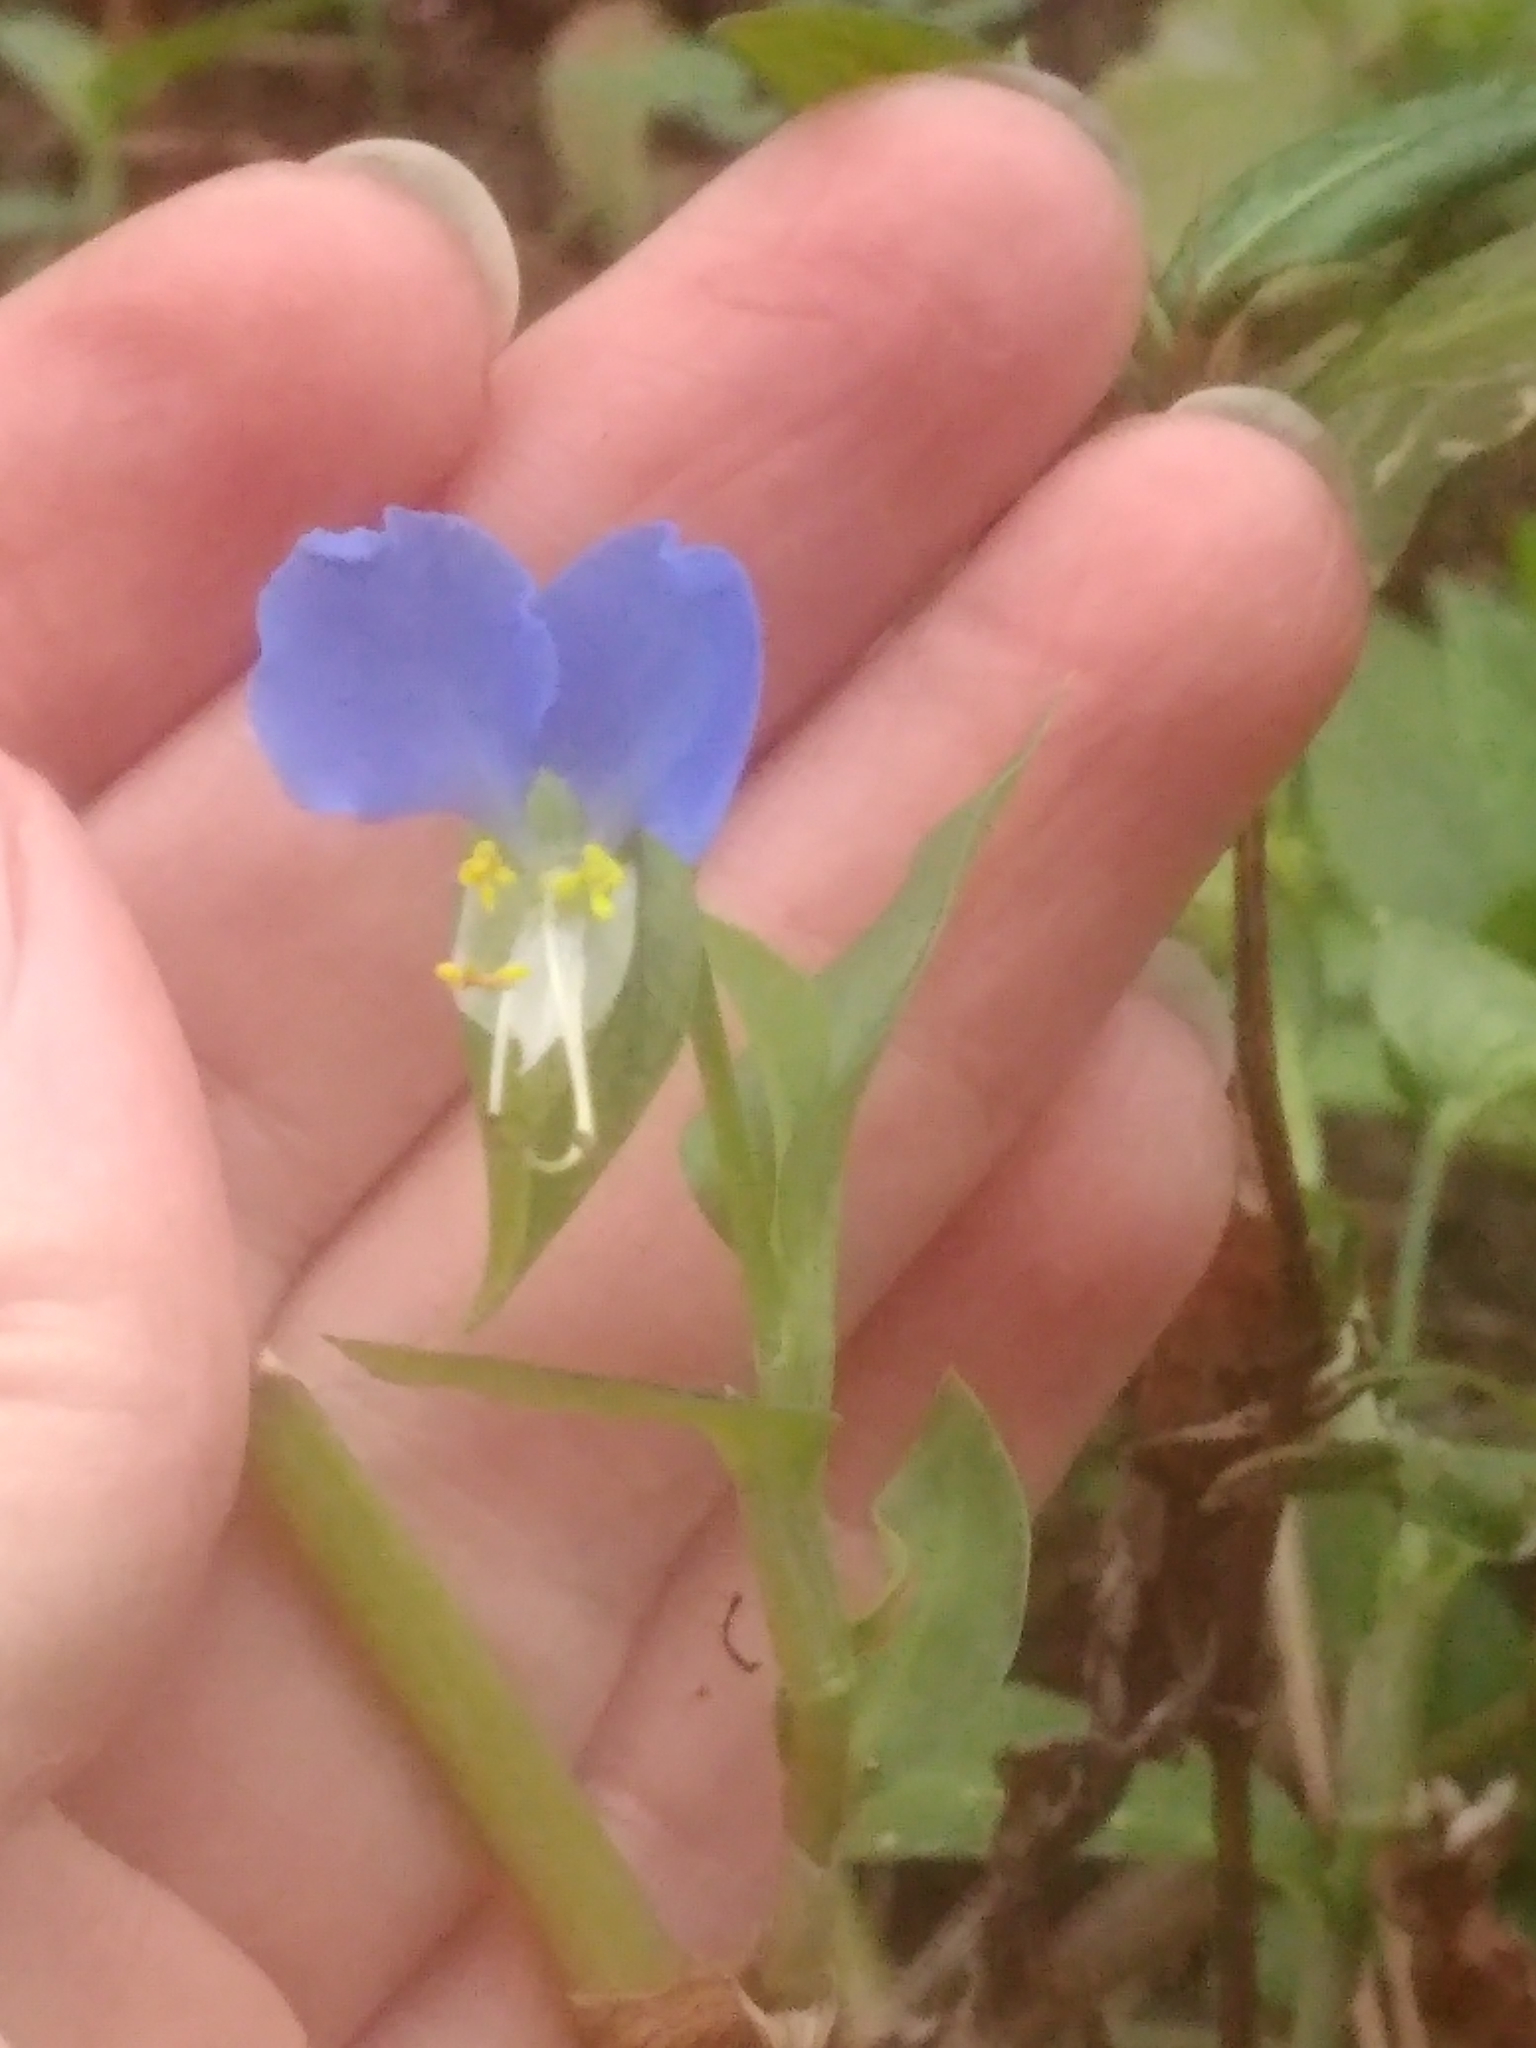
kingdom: Plantae
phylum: Tracheophyta
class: Liliopsida
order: Commelinales
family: Commelinaceae
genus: Commelina
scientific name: Commelina communis
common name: Asiatic dayflower
